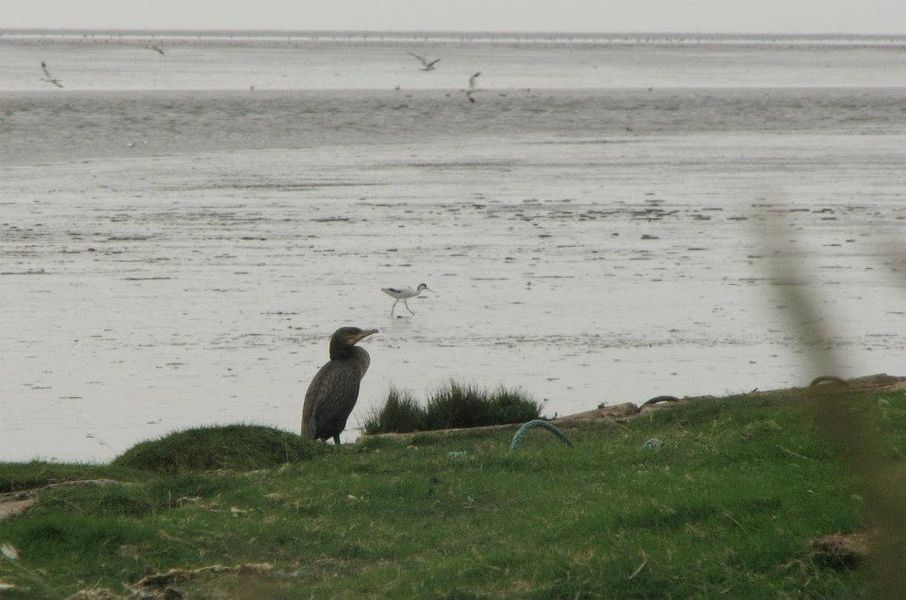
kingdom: Animalia
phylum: Chordata
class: Aves
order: Suliformes
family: Phalacrocoracidae
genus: Phalacrocorax
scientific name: Phalacrocorax carbo
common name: Great cormorant
